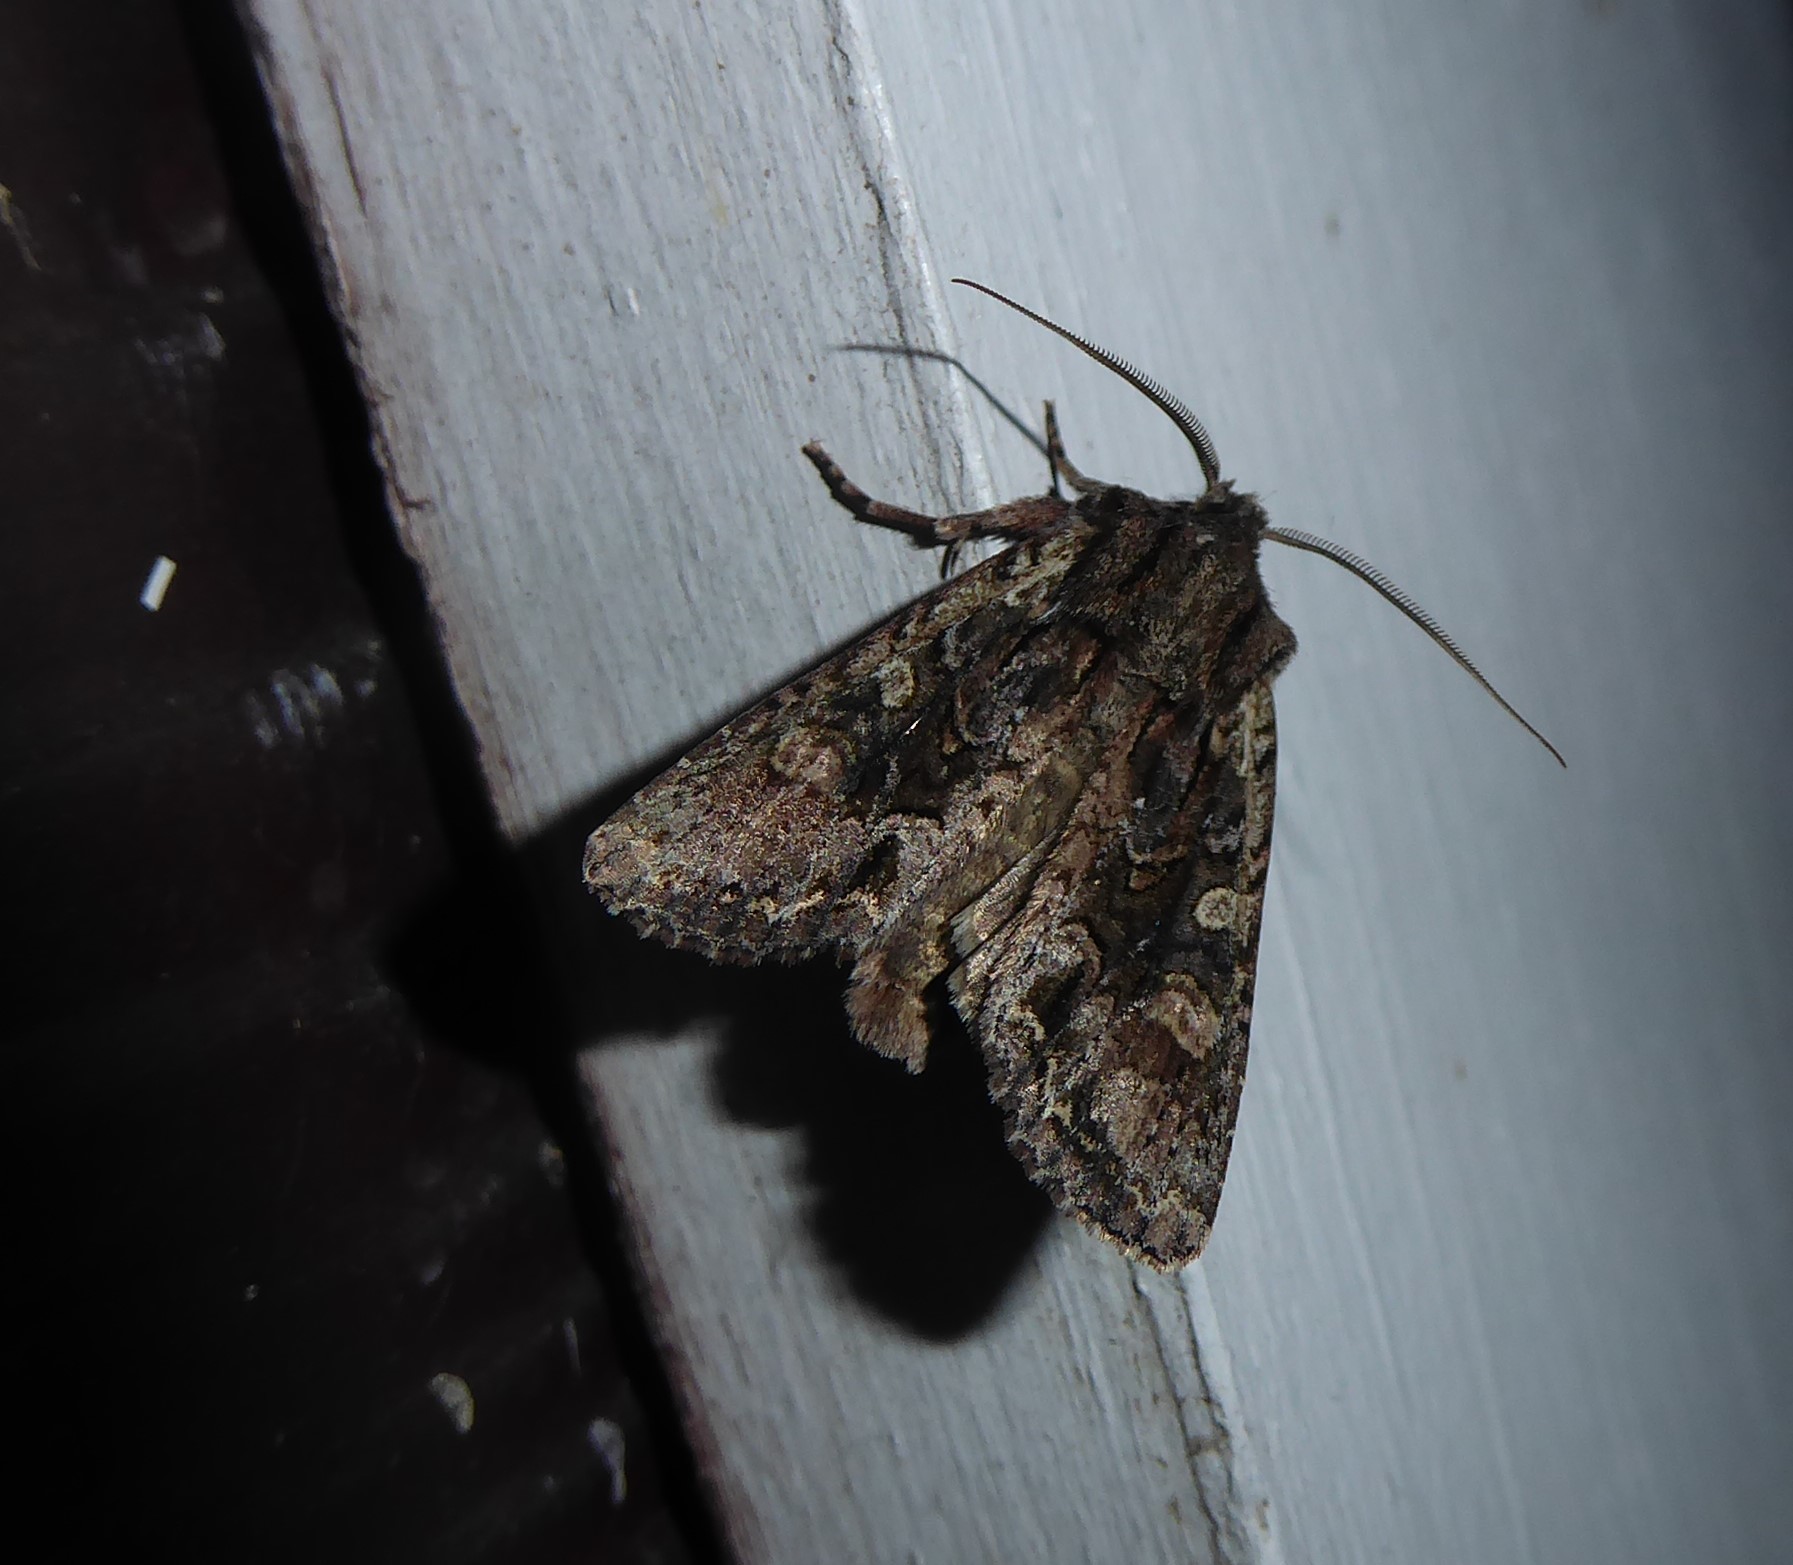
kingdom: Animalia
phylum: Arthropoda
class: Insecta
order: Lepidoptera
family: Noctuidae
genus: Ichneutica
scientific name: Ichneutica mutans
